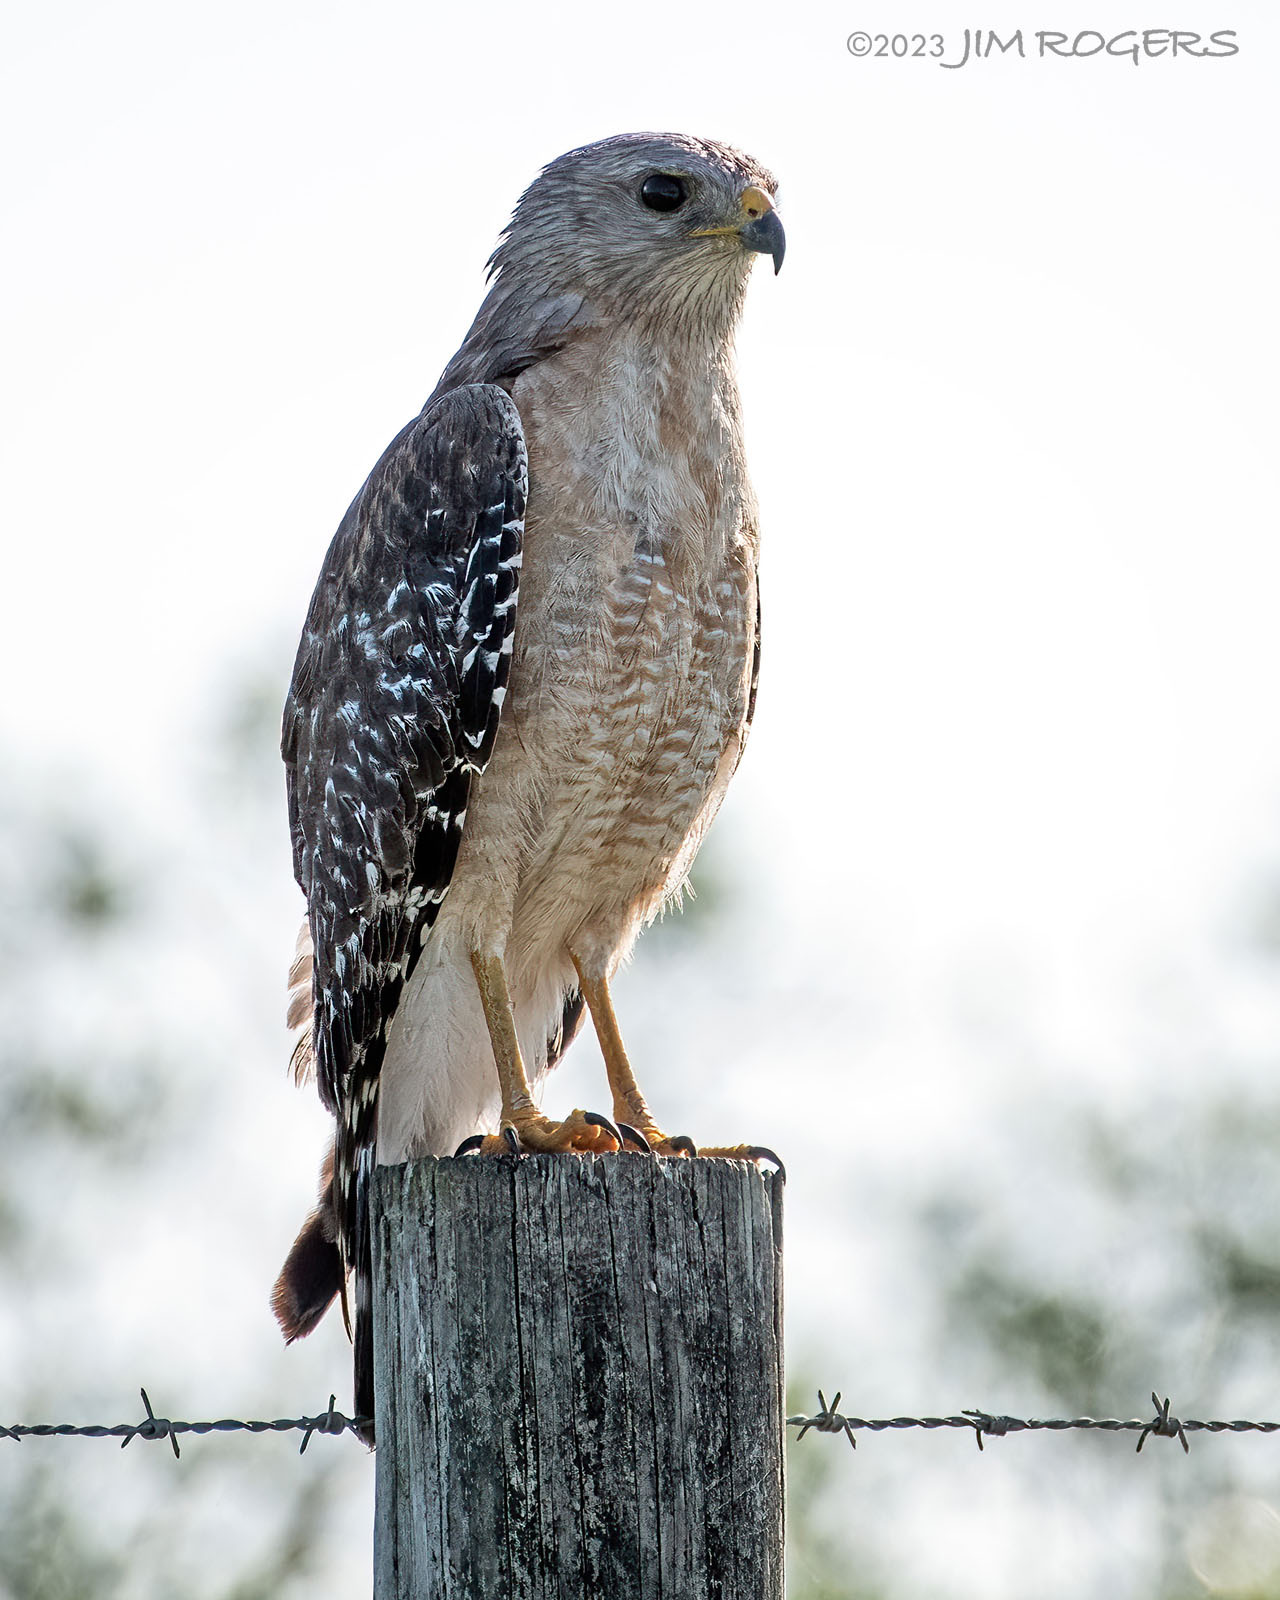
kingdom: Animalia
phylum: Chordata
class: Aves
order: Accipitriformes
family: Accipitridae
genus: Buteo
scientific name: Buteo lineatus
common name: Red-shouldered hawk
